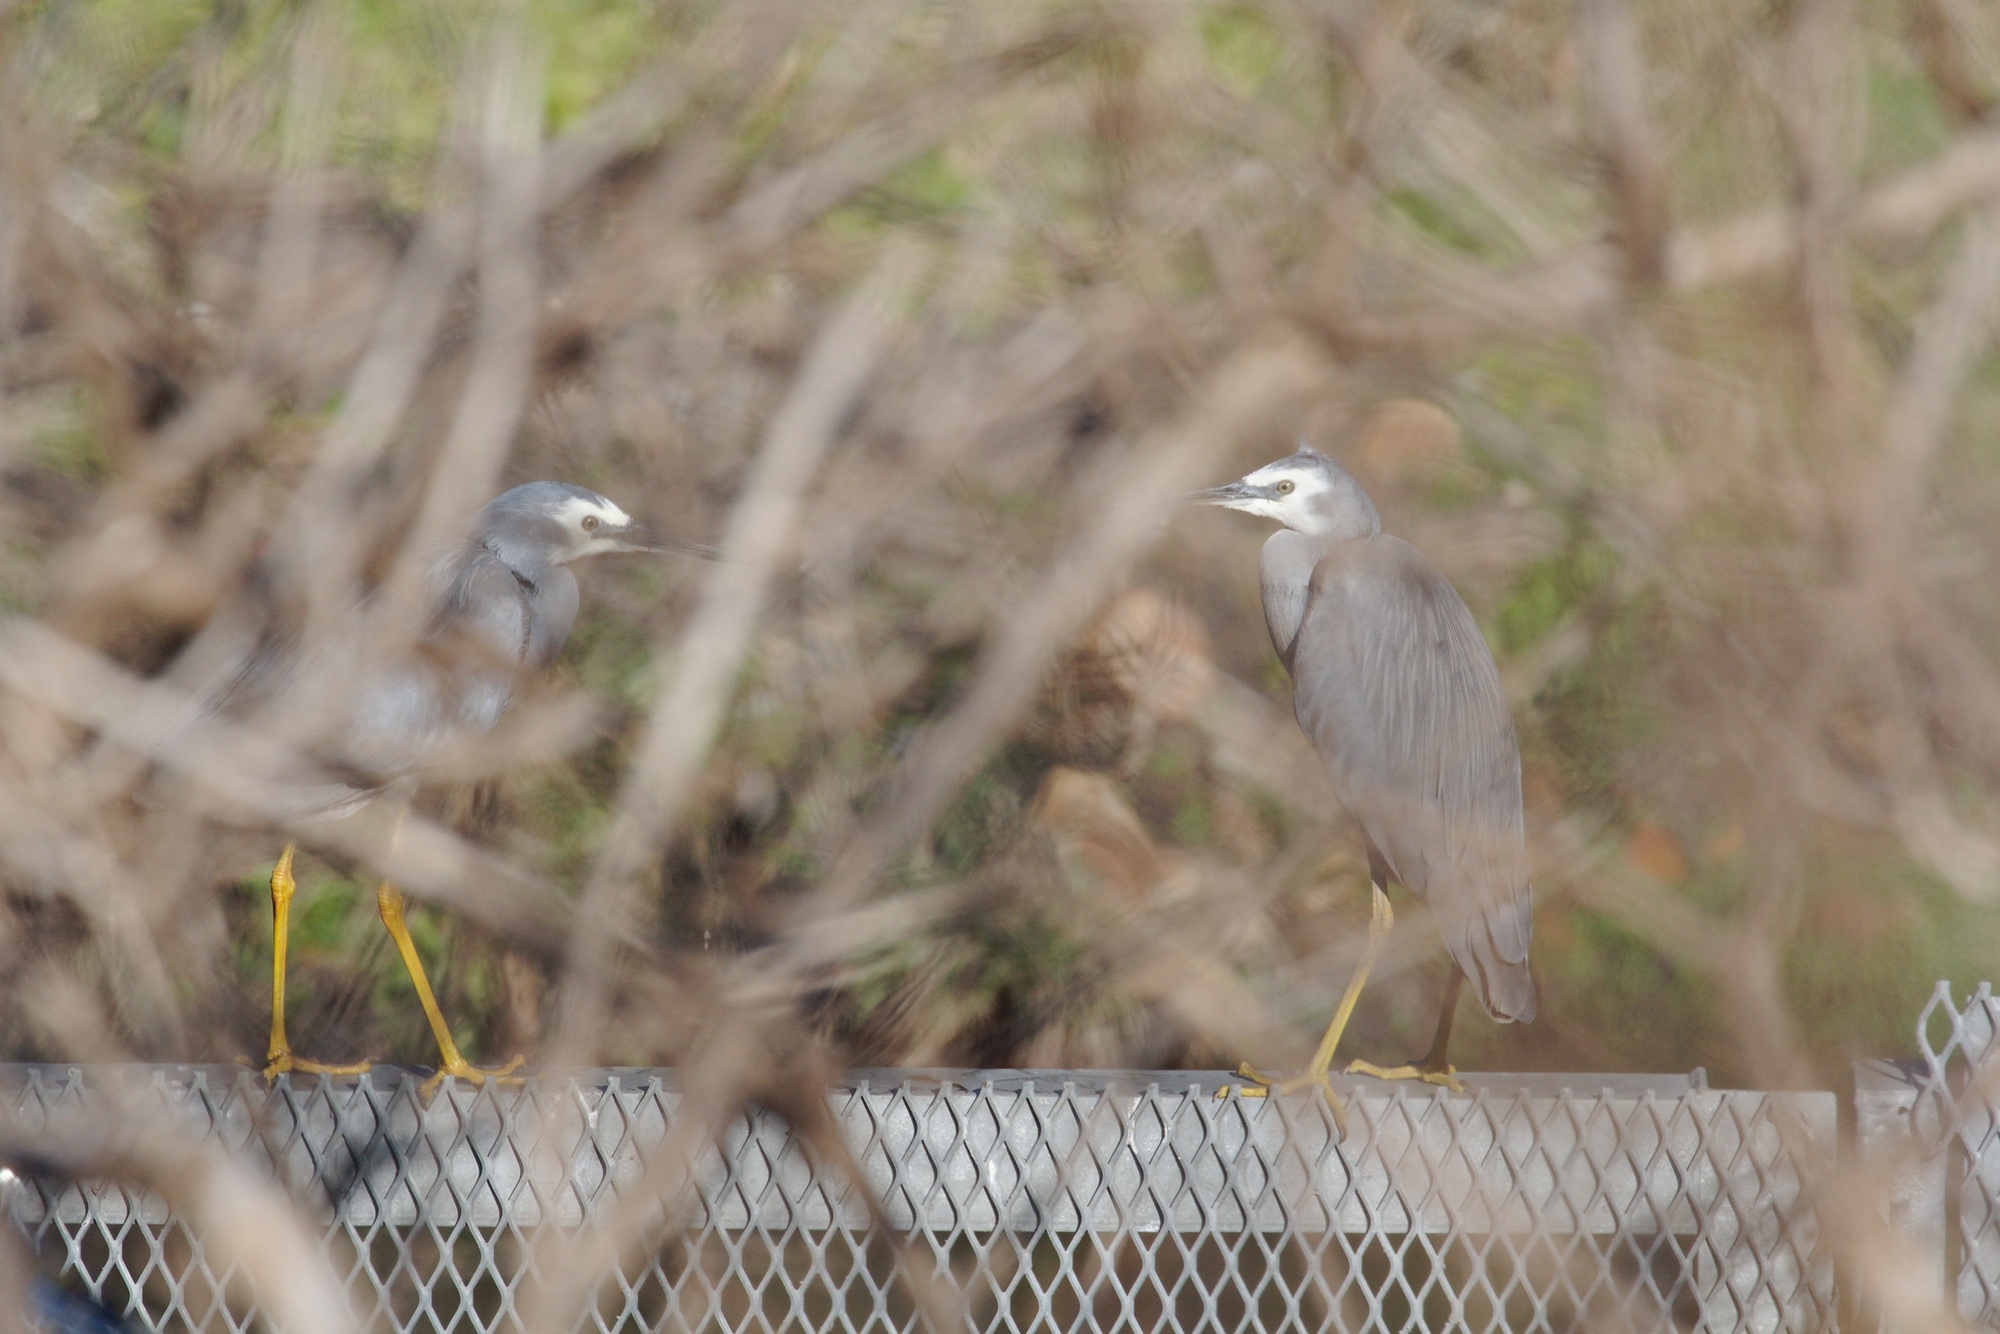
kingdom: Animalia
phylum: Chordata
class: Aves
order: Pelecaniformes
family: Ardeidae
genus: Egretta
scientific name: Egretta novaehollandiae
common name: White-faced heron
